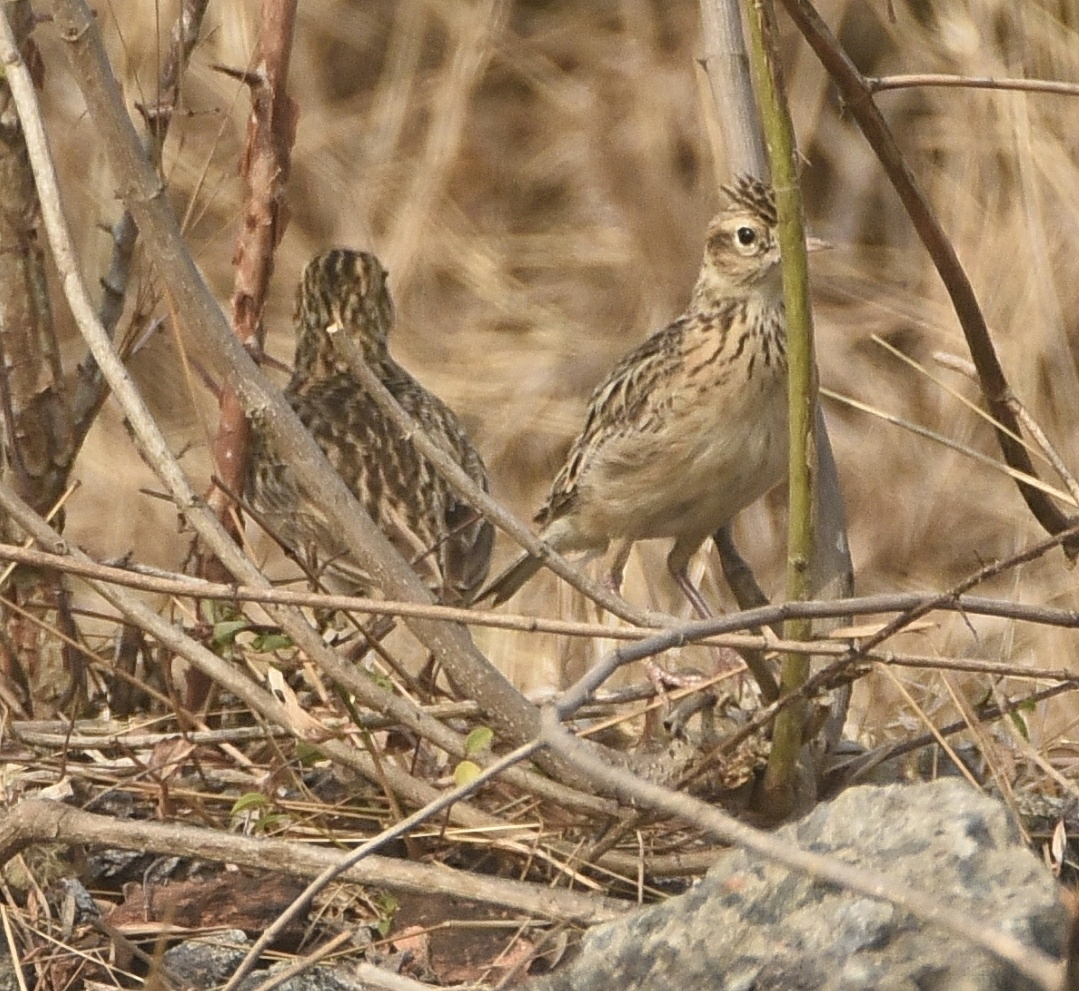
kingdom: Animalia
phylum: Chordata
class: Aves
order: Passeriformes
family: Alaudidae
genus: Alauda
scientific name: Alauda gulgula
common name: Oriental skylark
